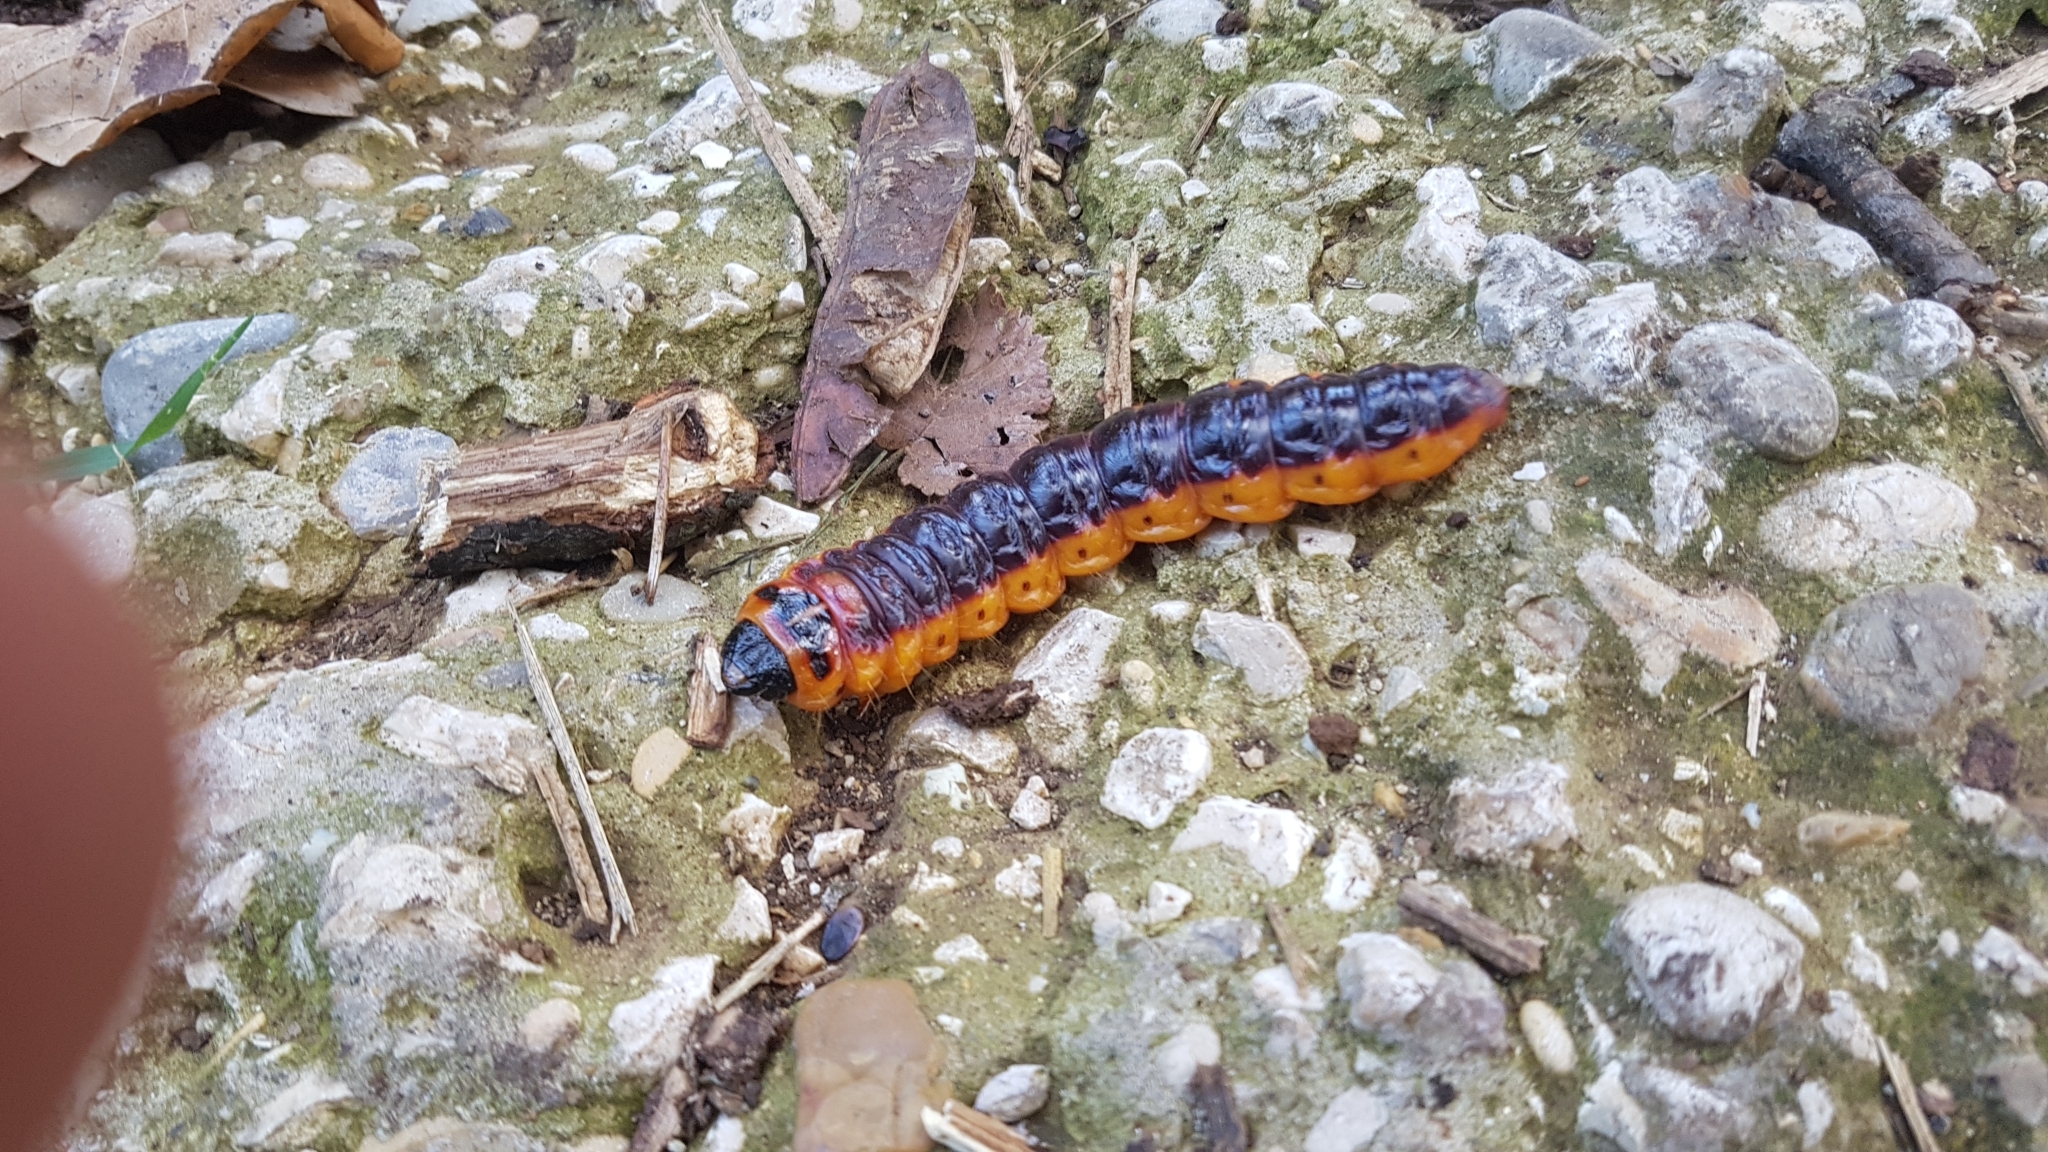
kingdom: Animalia
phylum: Arthropoda
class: Insecta
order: Lepidoptera
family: Cossidae
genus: Cossus
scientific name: Cossus cossus
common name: Goat moth
